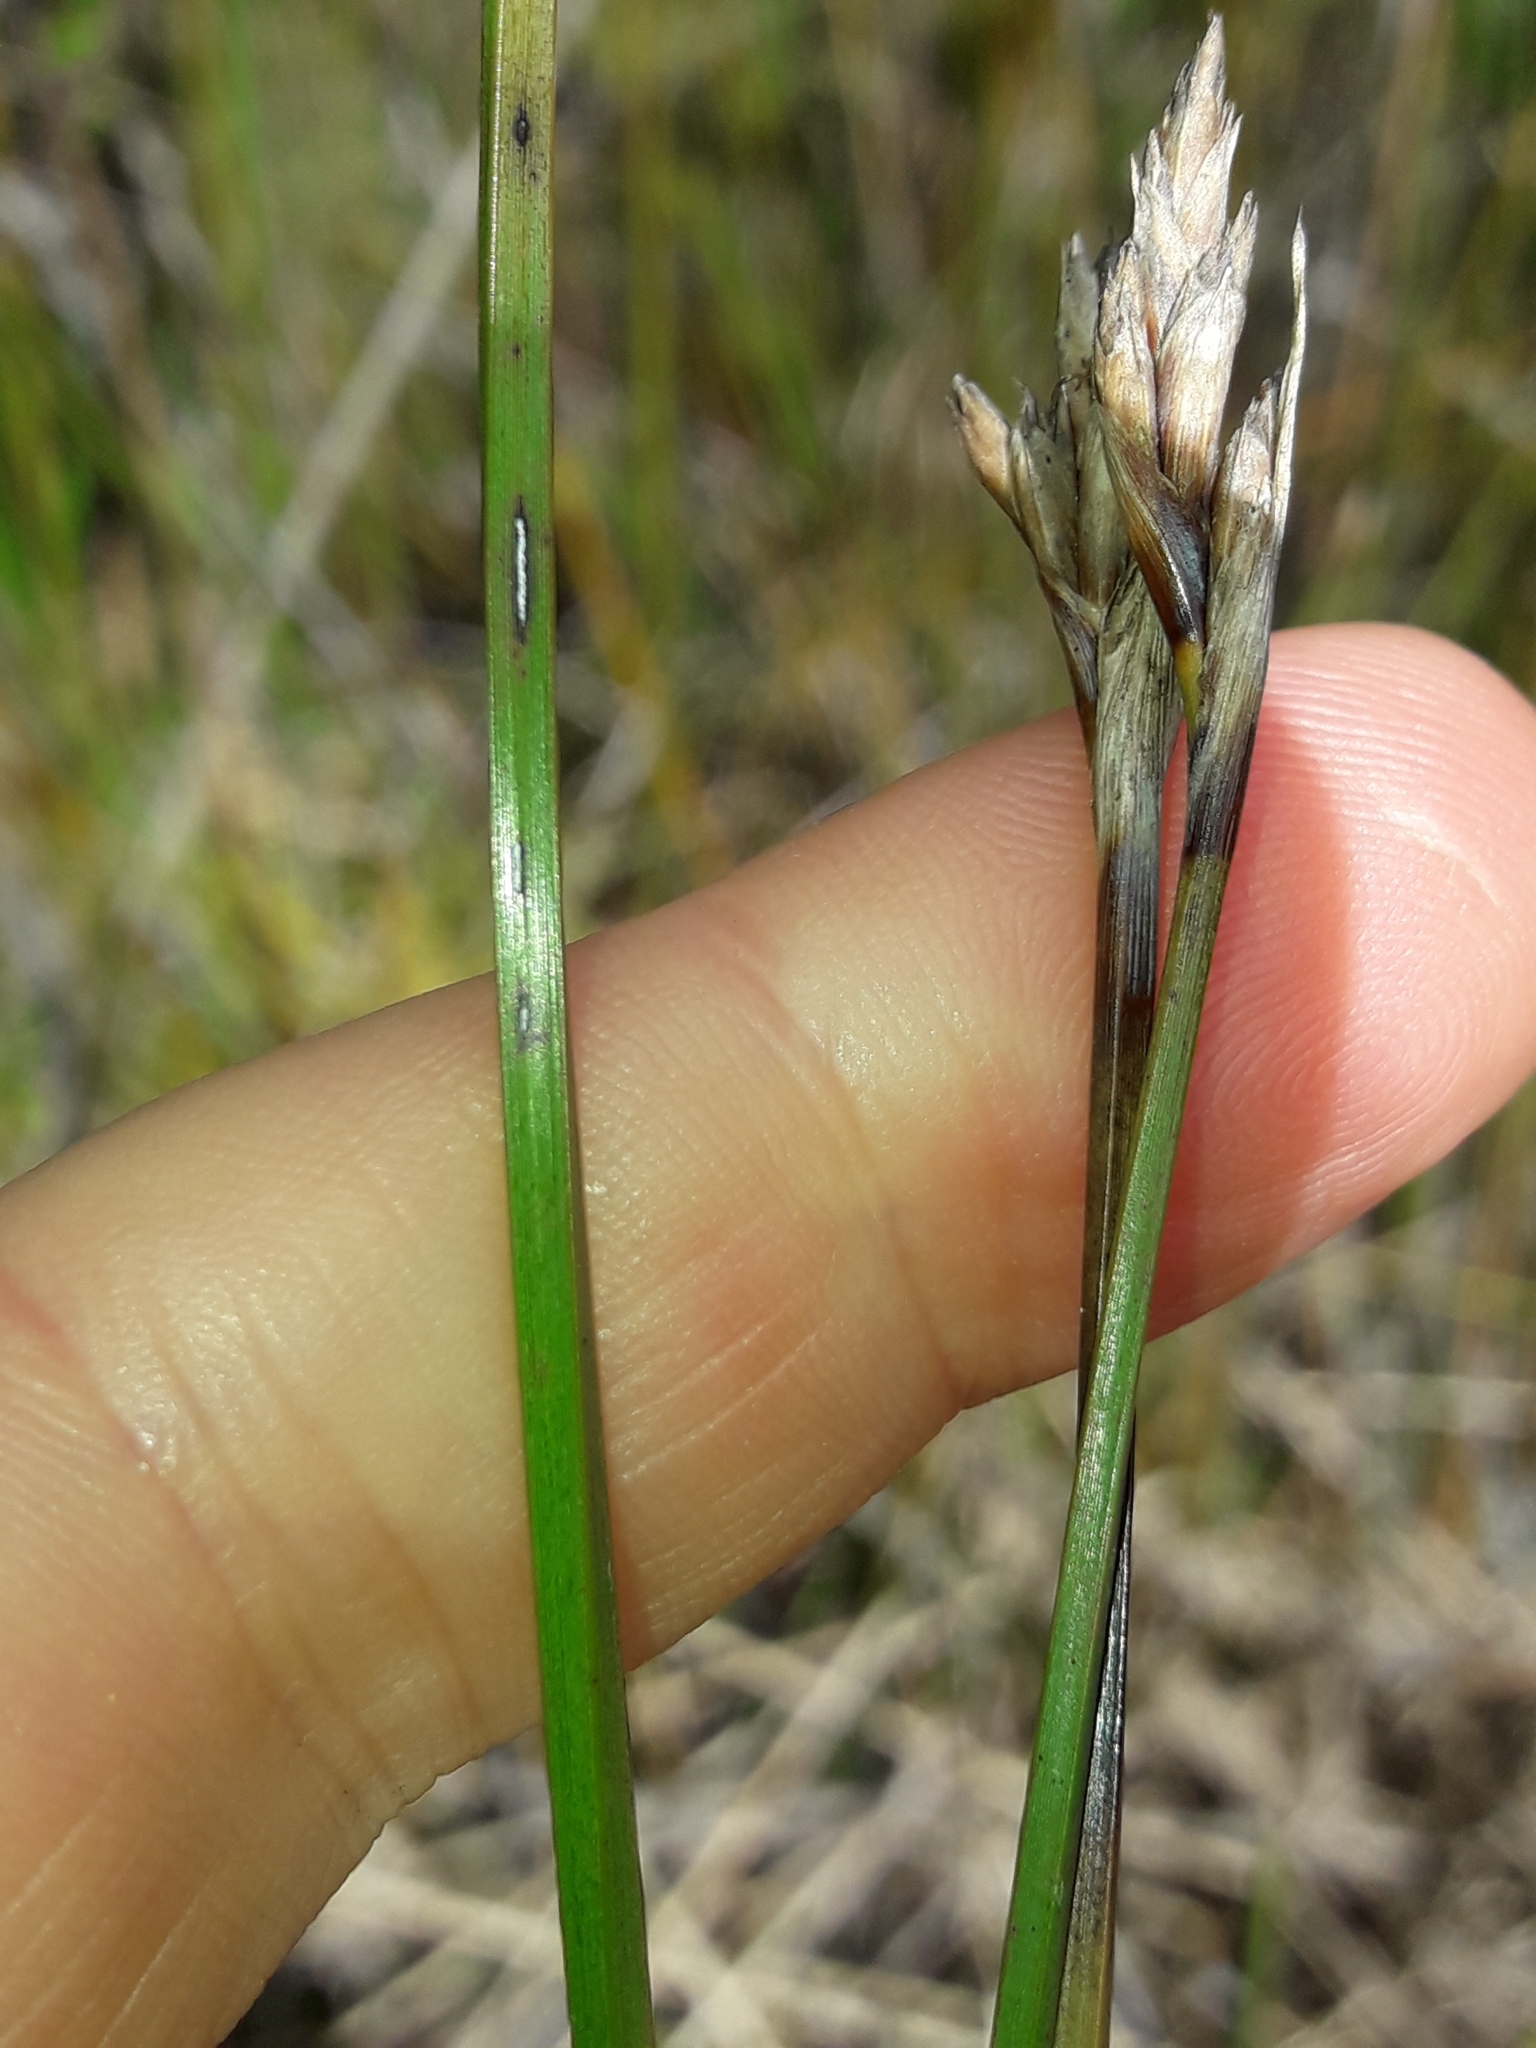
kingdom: Plantae
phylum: Tracheophyta
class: Liliopsida
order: Poales
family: Cyperaceae
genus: Lepidosperma
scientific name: Lepidosperma australe
